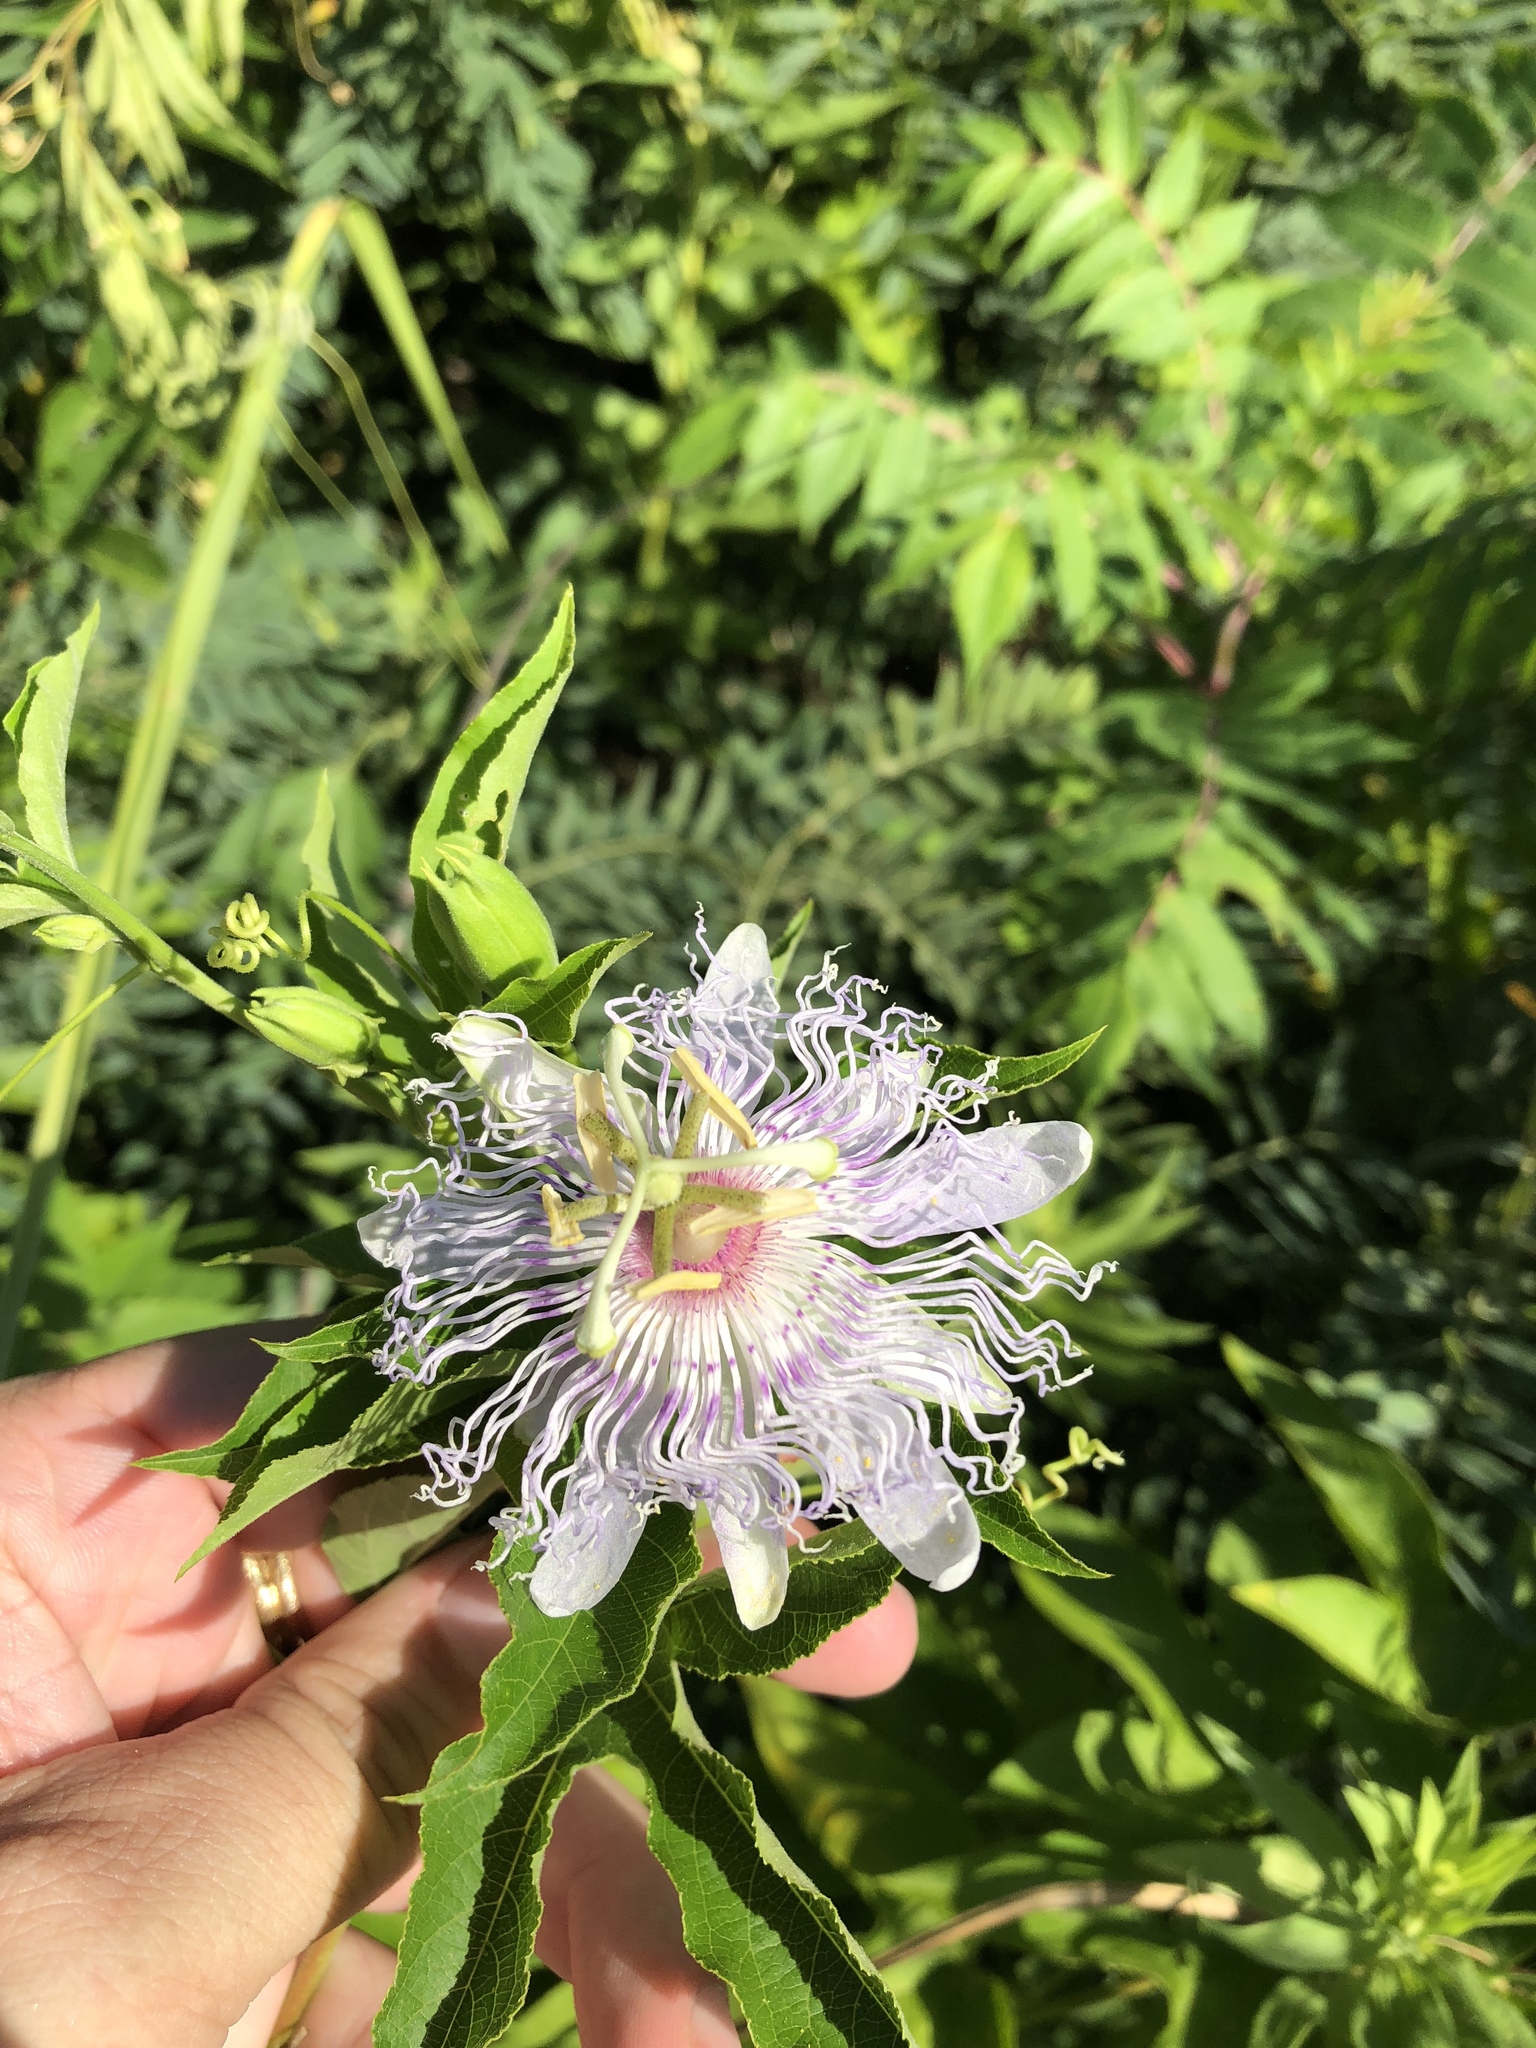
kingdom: Plantae
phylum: Tracheophyta
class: Magnoliopsida
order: Malpighiales
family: Passifloraceae
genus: Passiflora
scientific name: Passiflora incarnata
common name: Apricot-vine
